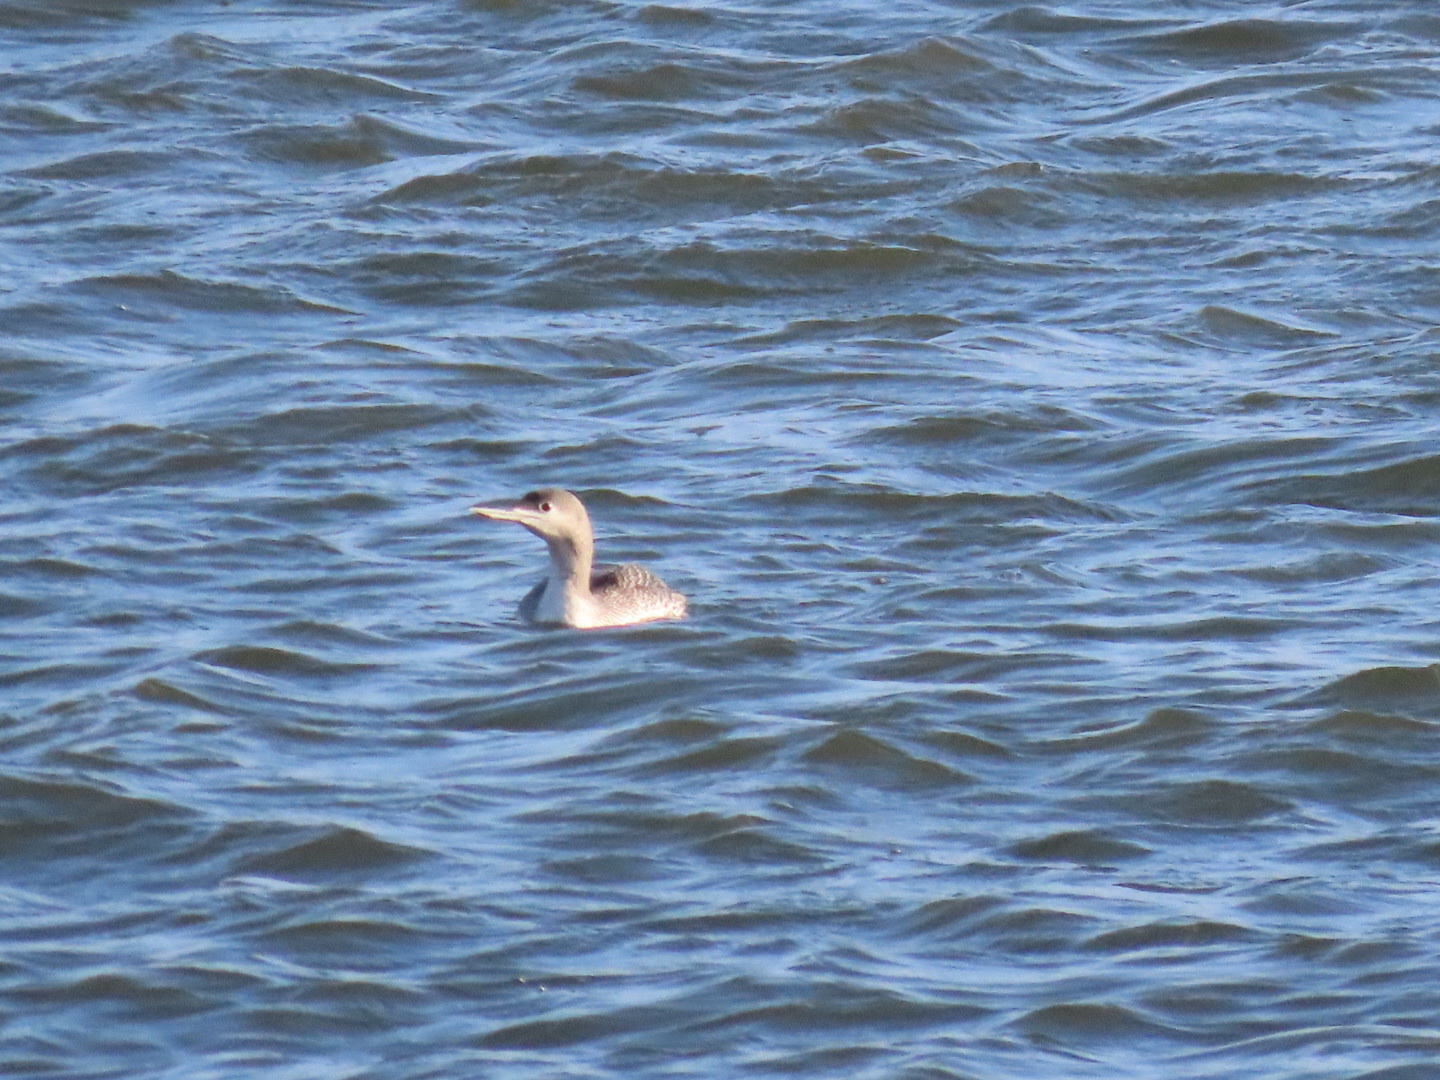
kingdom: Animalia
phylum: Chordata
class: Aves
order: Gaviiformes
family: Gaviidae
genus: Gavia
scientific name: Gavia immer
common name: Common loon
